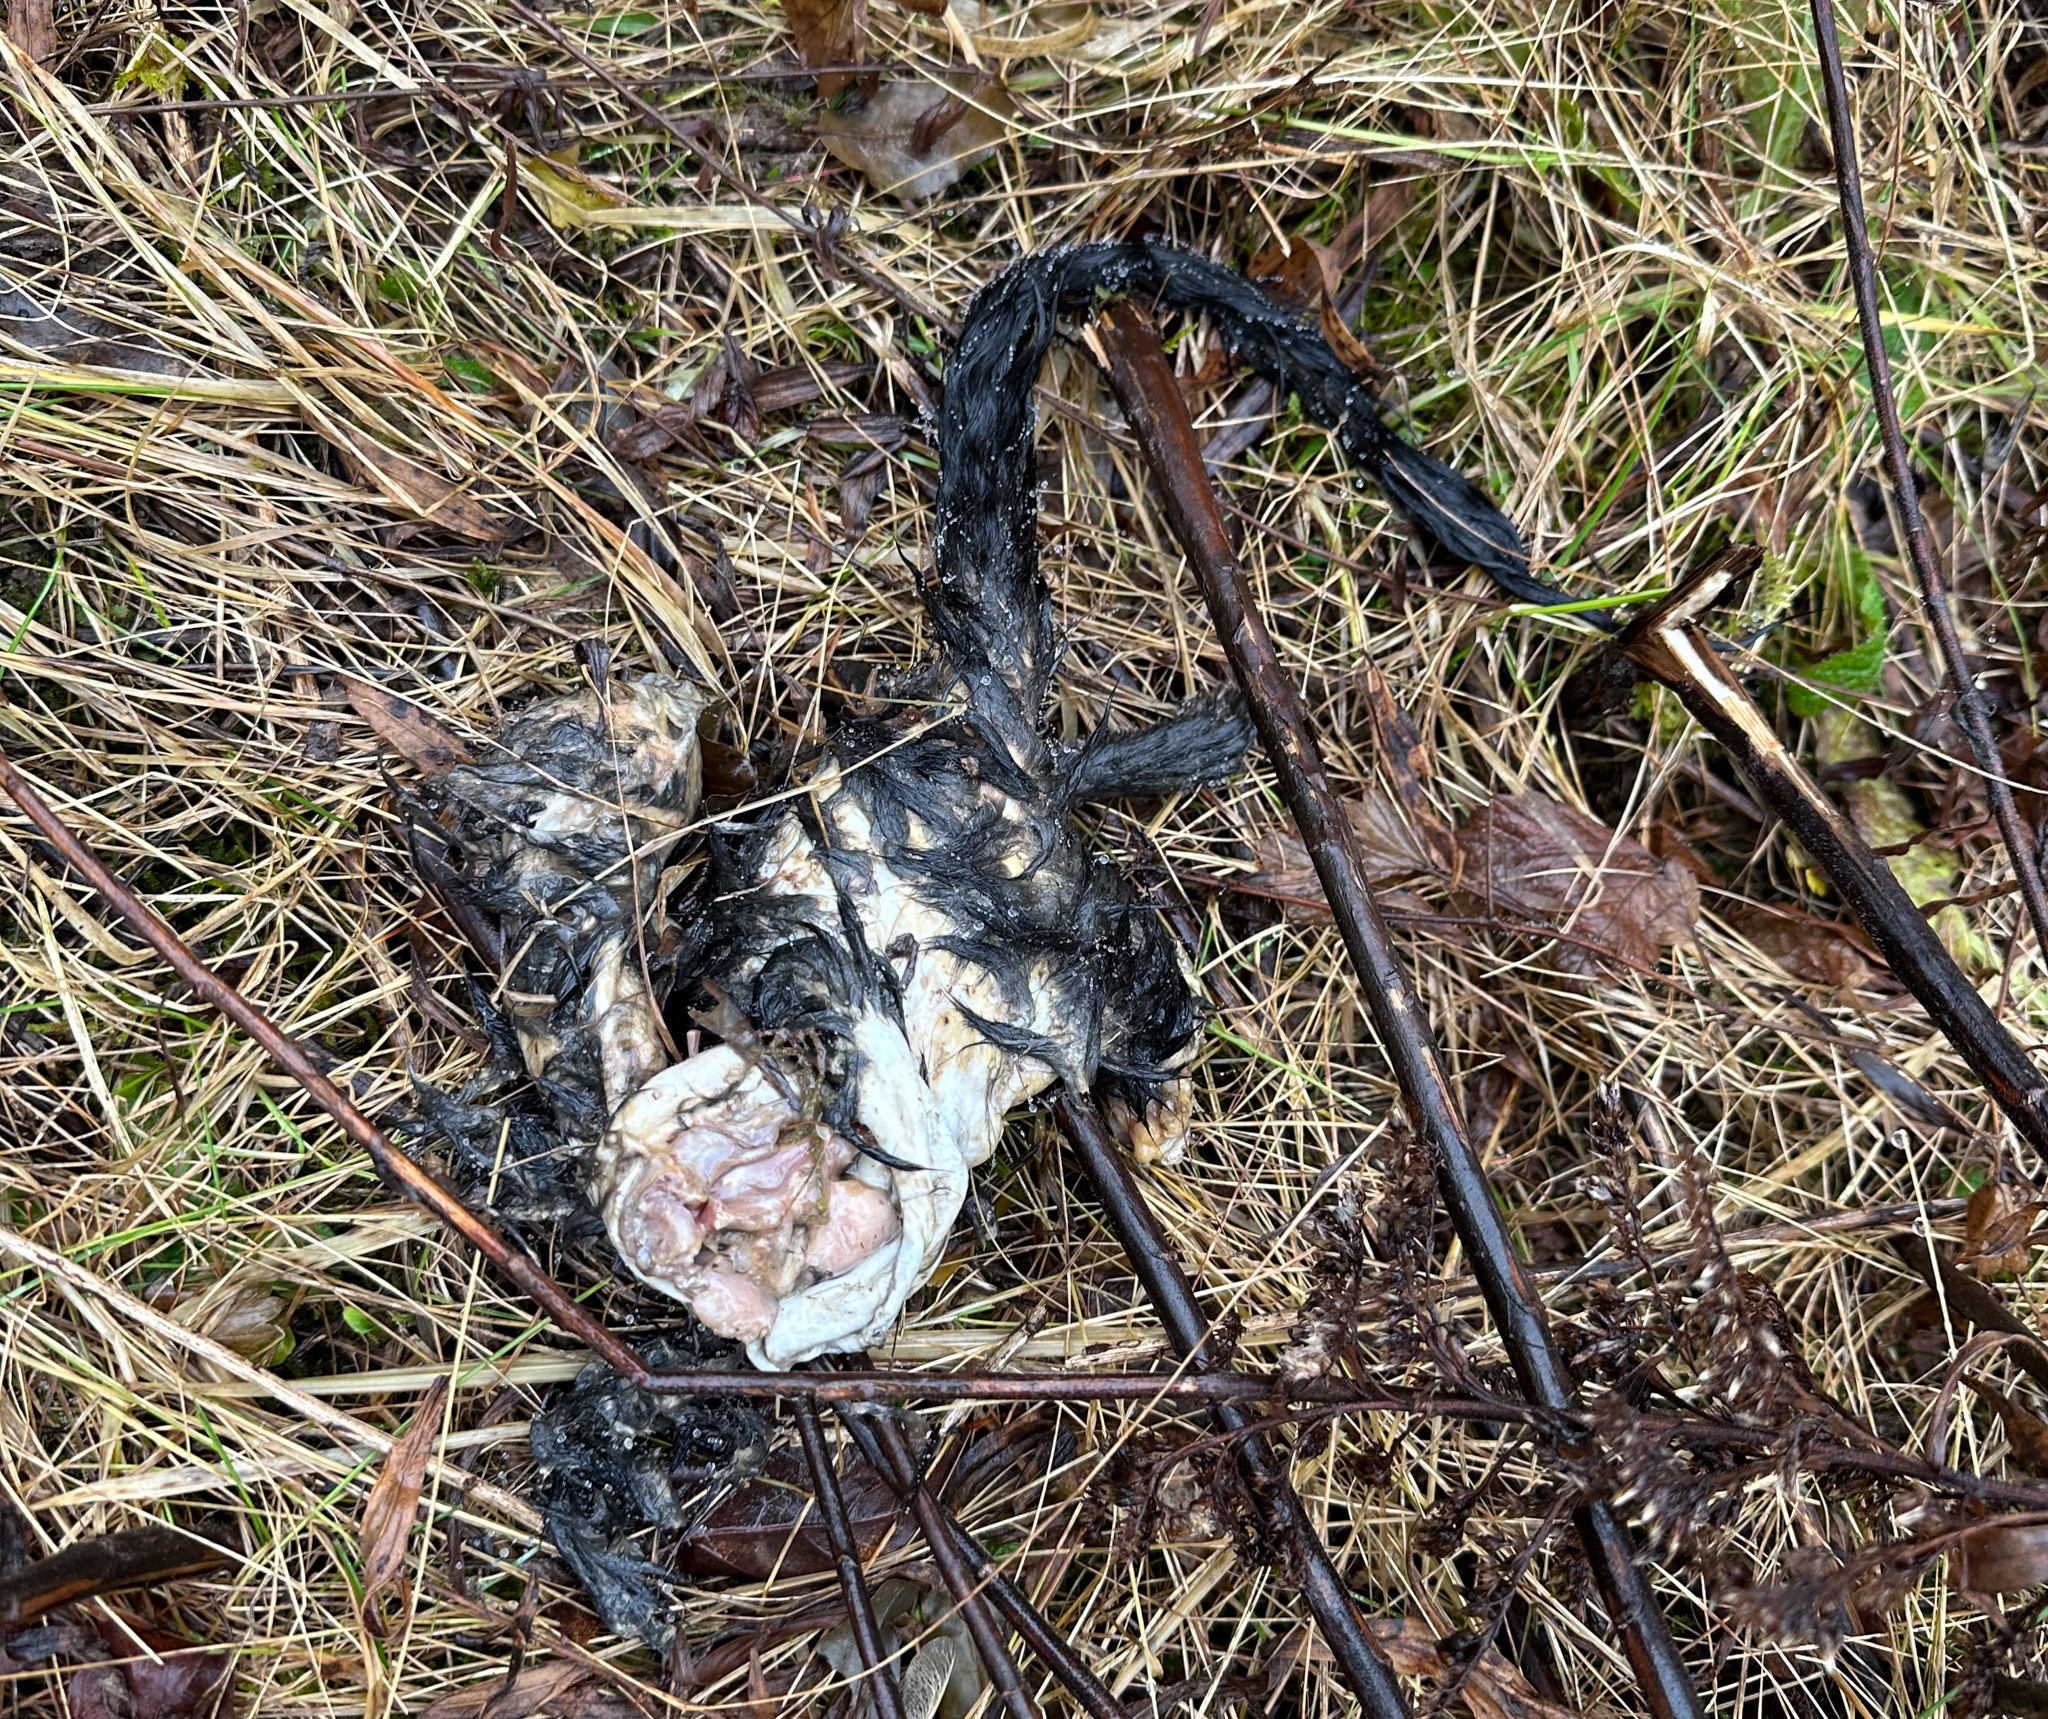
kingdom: Animalia
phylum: Chordata
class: Mammalia
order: Rodentia
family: Sciuridae
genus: Sciurus
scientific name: Sciurus carolinensis
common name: Eastern gray squirrel
